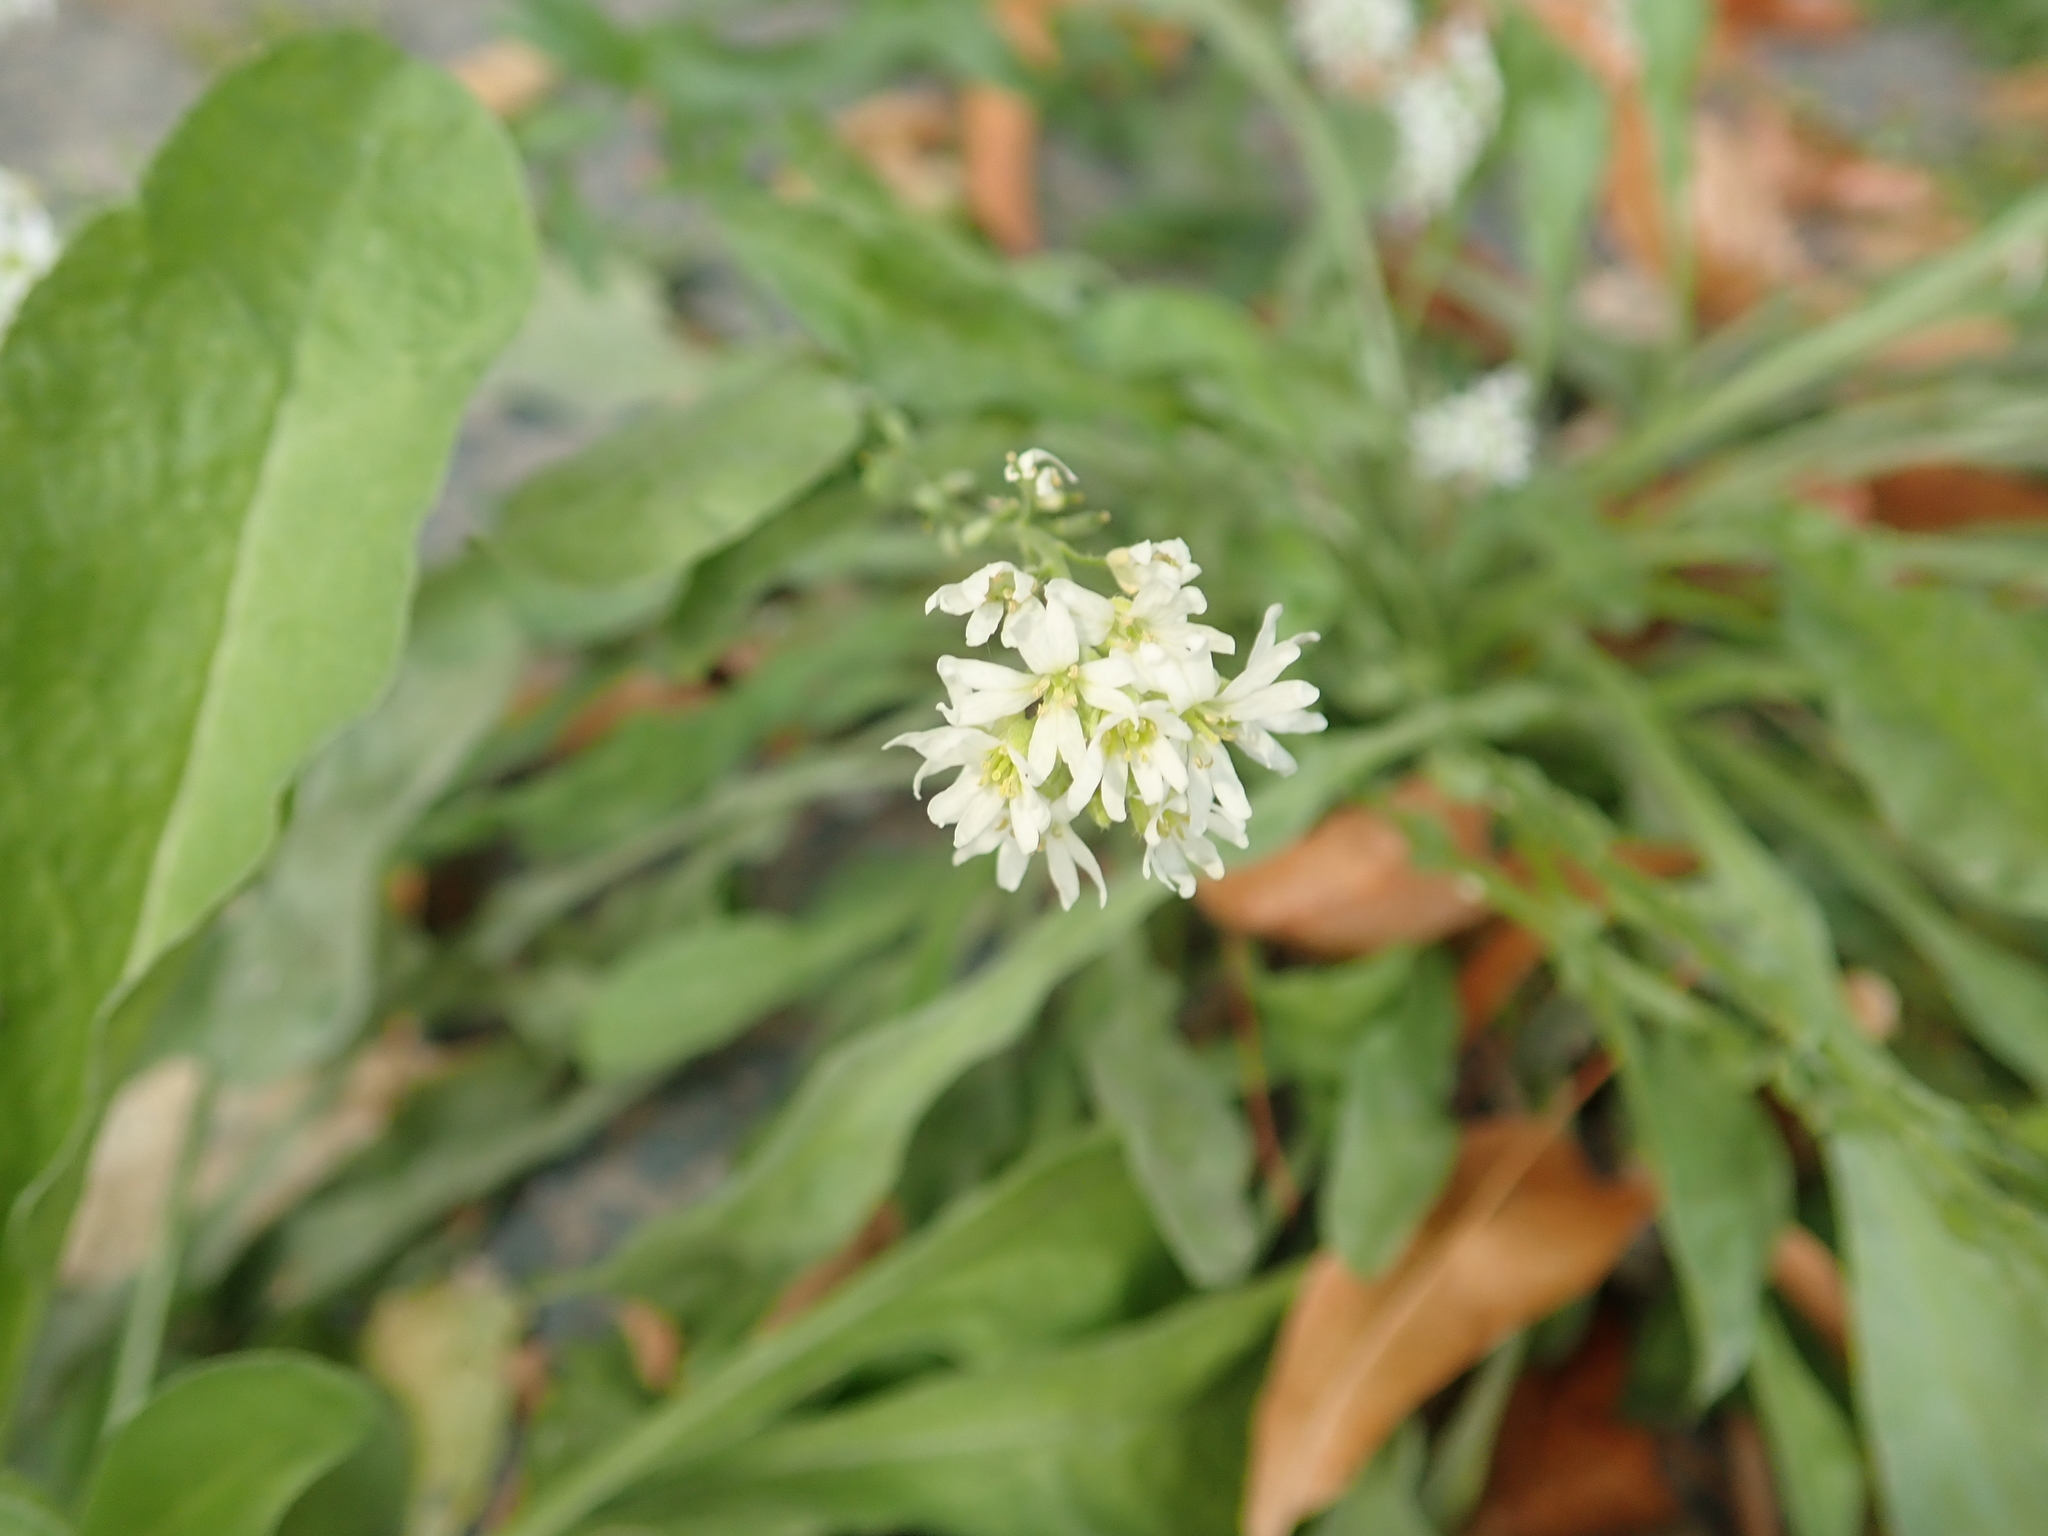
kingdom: Plantae
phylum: Tracheophyta
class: Magnoliopsida
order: Brassicales
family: Brassicaceae
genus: Berteroa
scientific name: Berteroa incana
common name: Hoary alison
